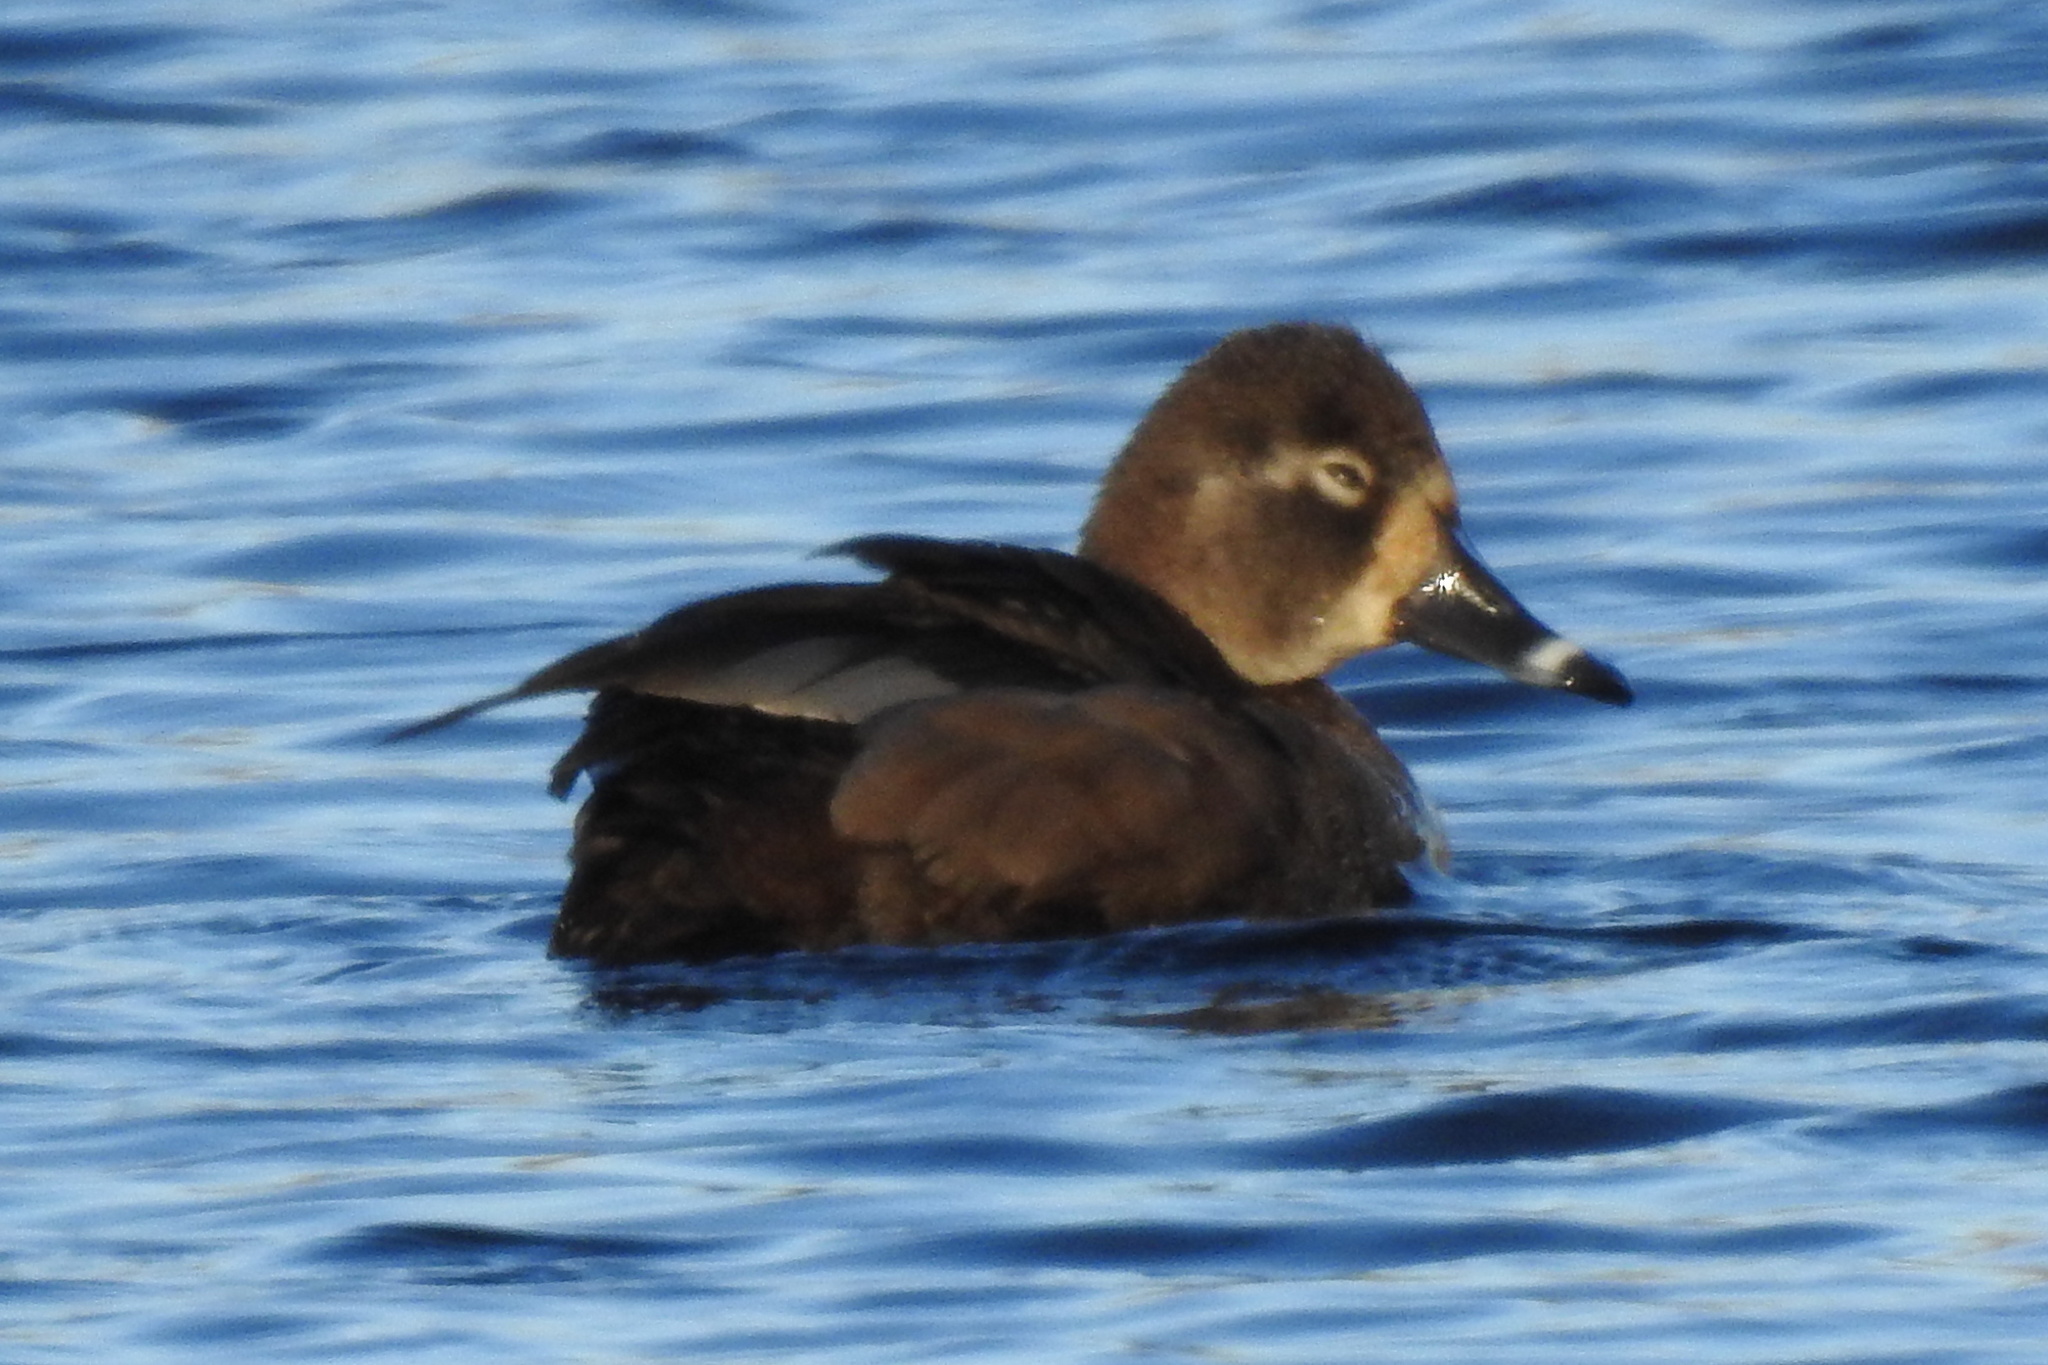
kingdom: Animalia
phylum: Chordata
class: Aves
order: Anseriformes
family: Anatidae
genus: Aythya
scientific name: Aythya collaris
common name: Ring-necked duck
